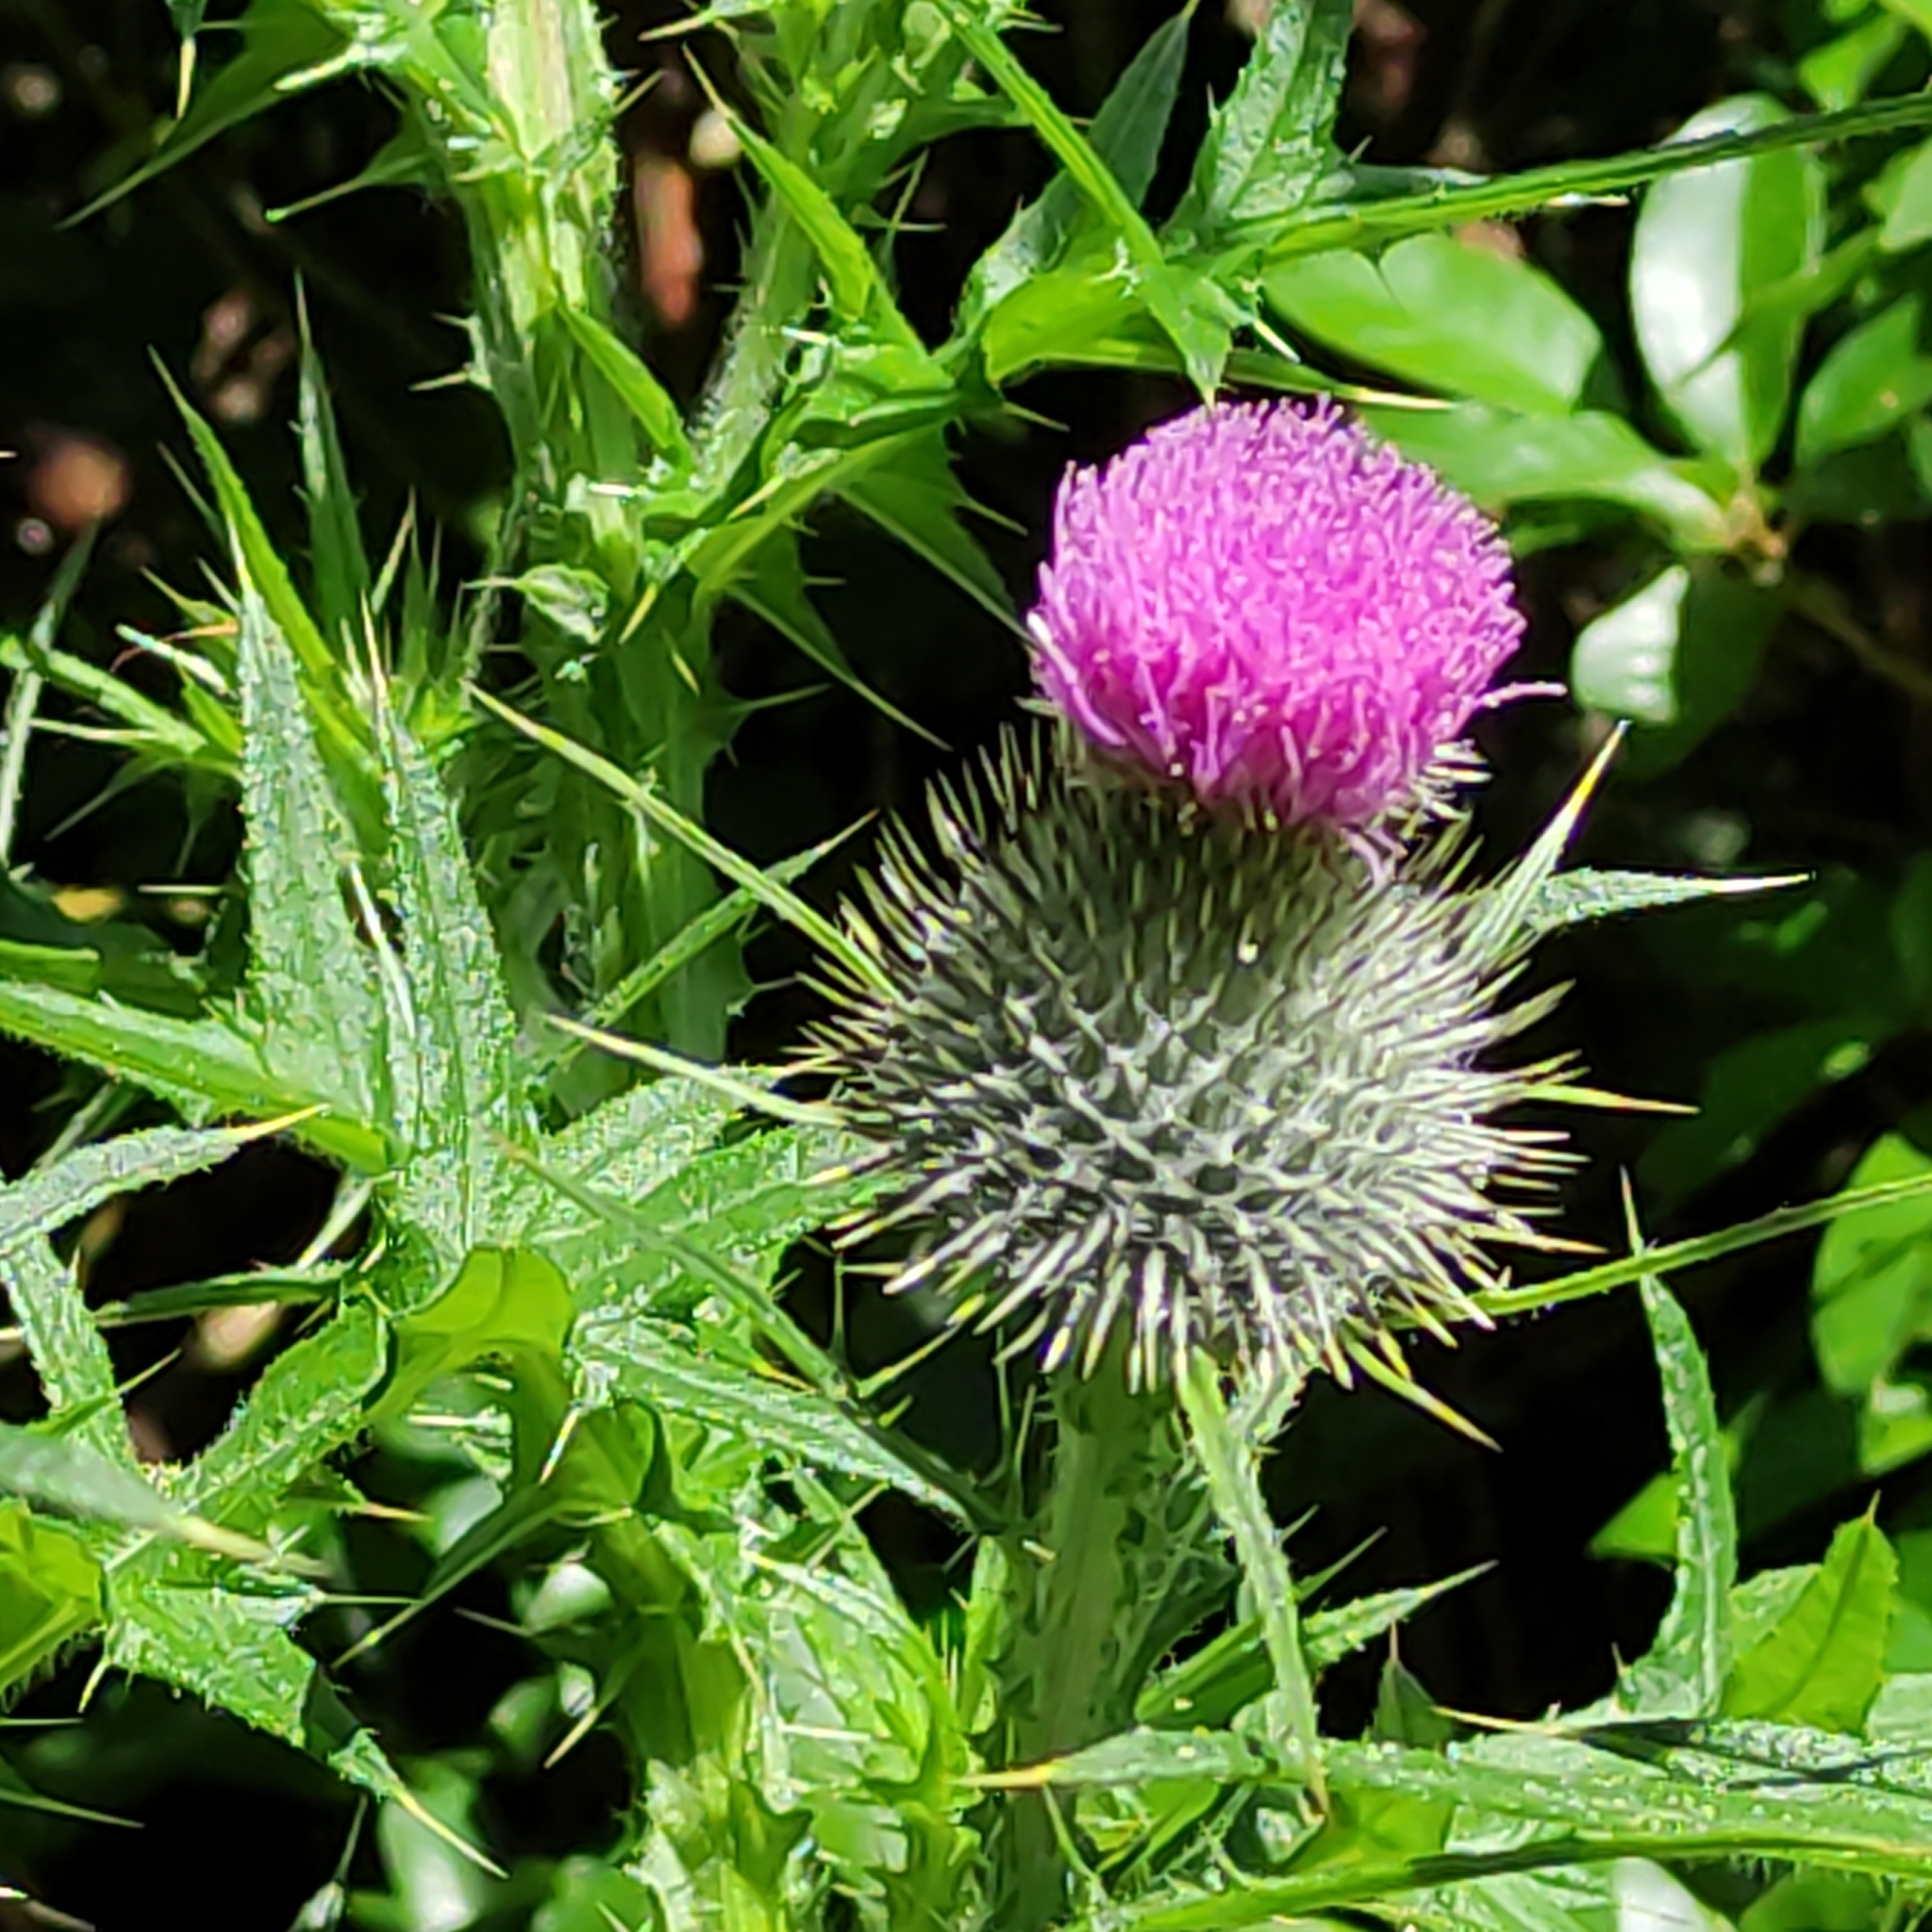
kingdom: Plantae
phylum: Tracheophyta
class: Magnoliopsida
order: Asterales
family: Asteraceae
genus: Cirsium
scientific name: Cirsium vulgare
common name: Bull thistle
